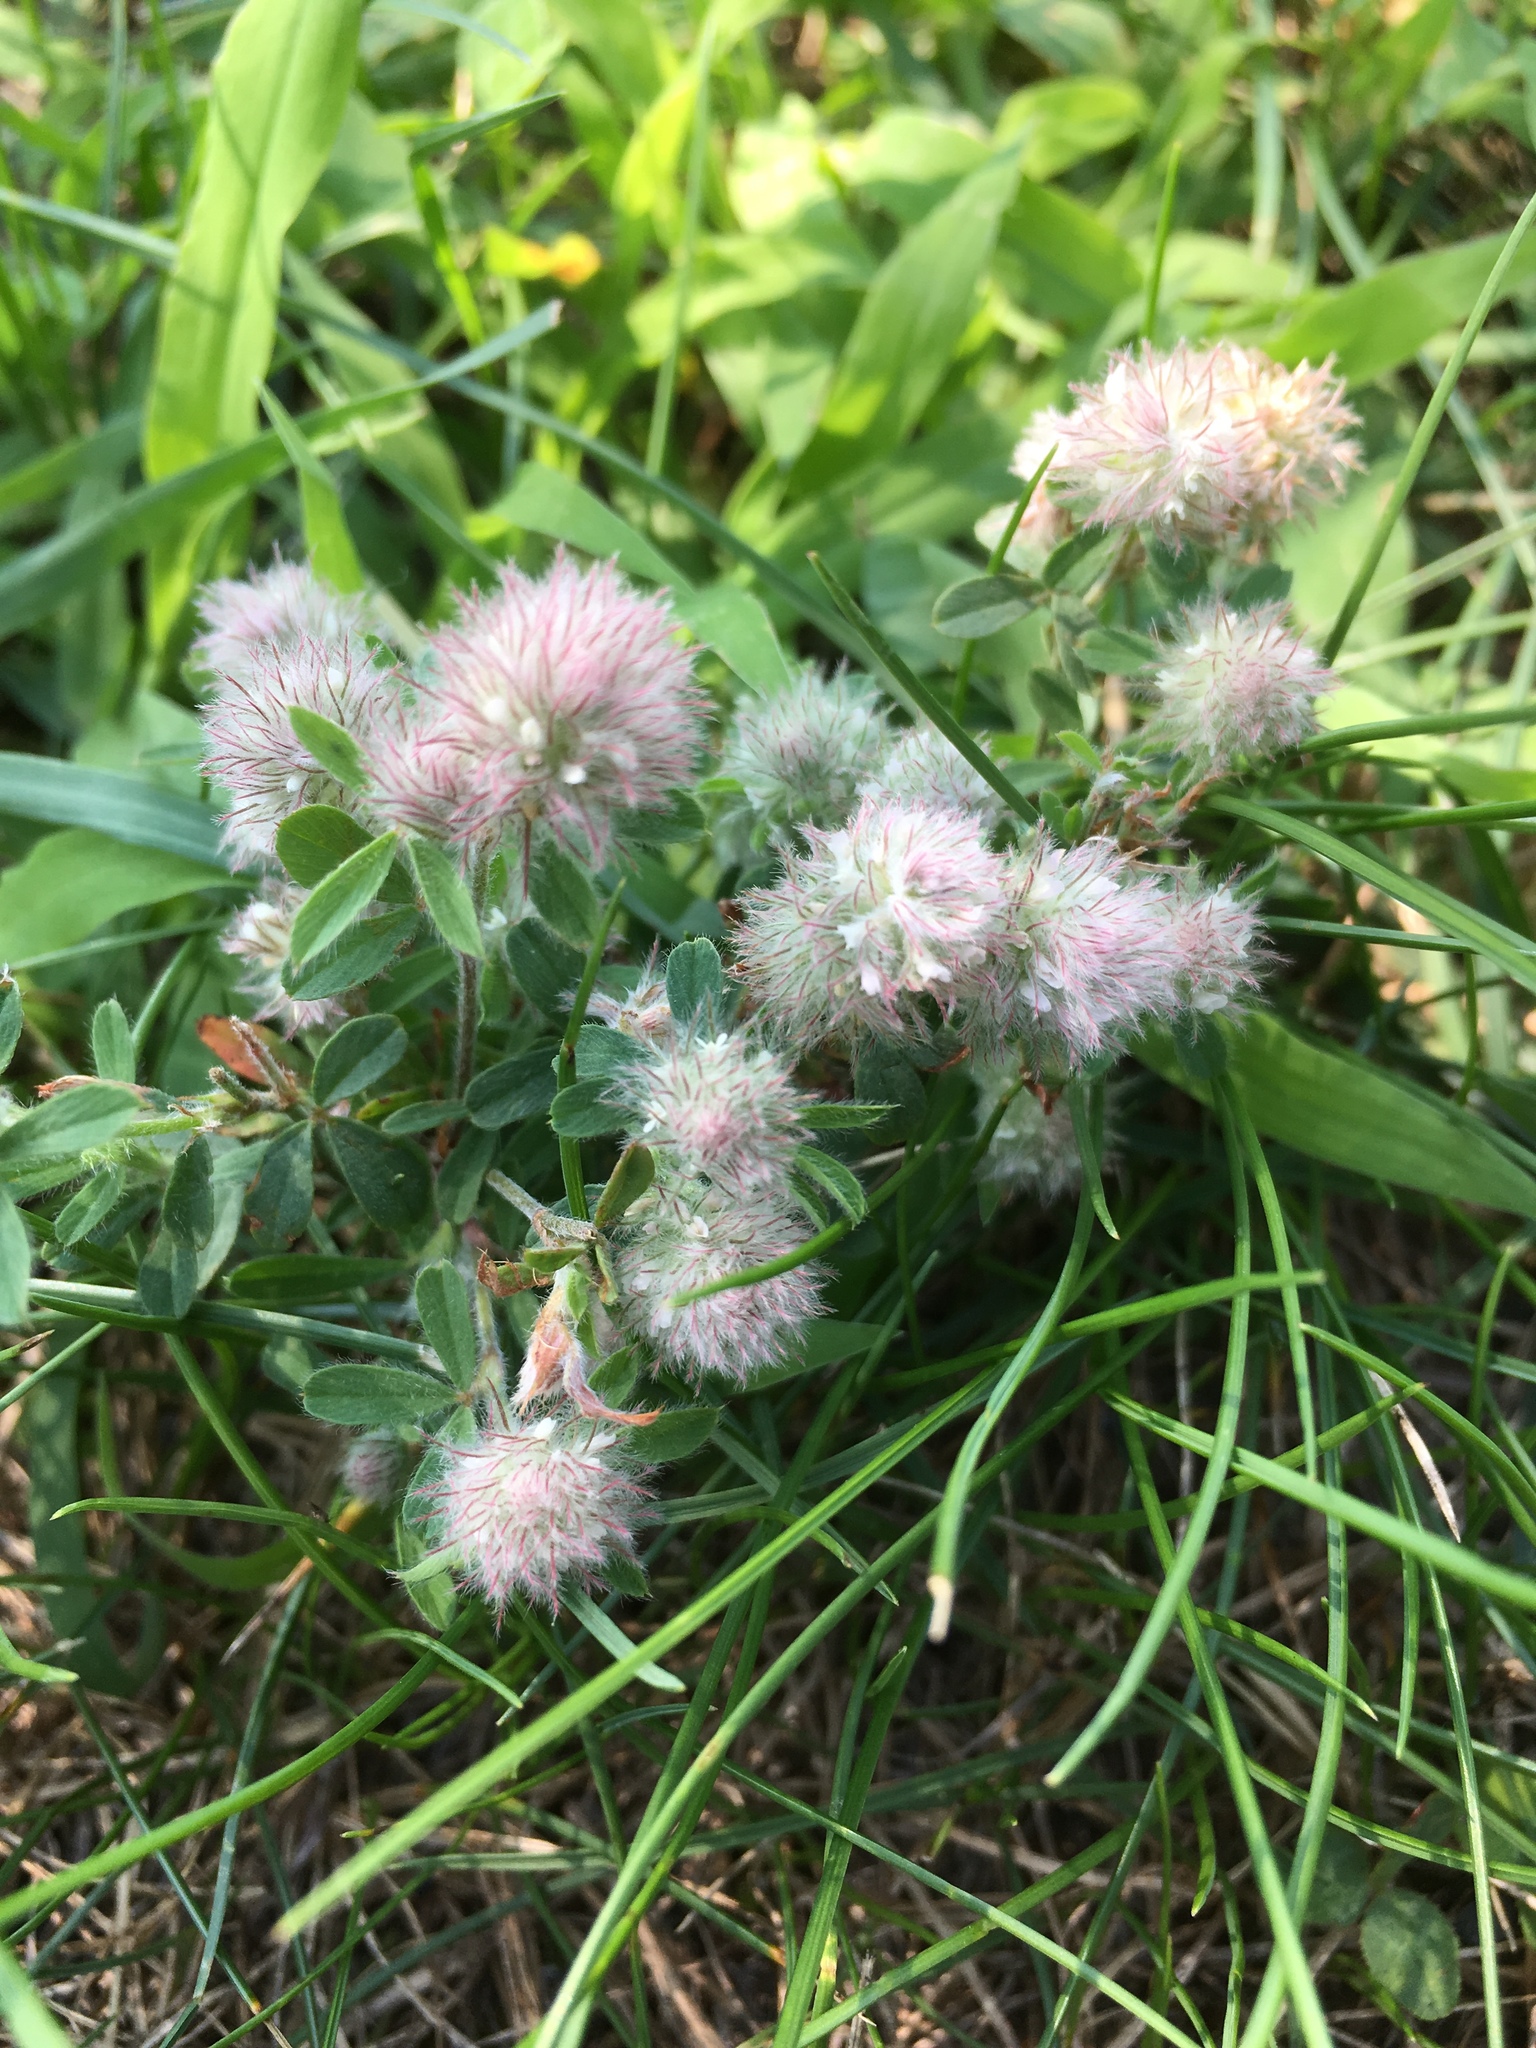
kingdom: Plantae
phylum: Tracheophyta
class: Magnoliopsida
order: Fabales
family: Fabaceae
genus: Trifolium
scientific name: Trifolium arvense
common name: Hare's-foot clover
